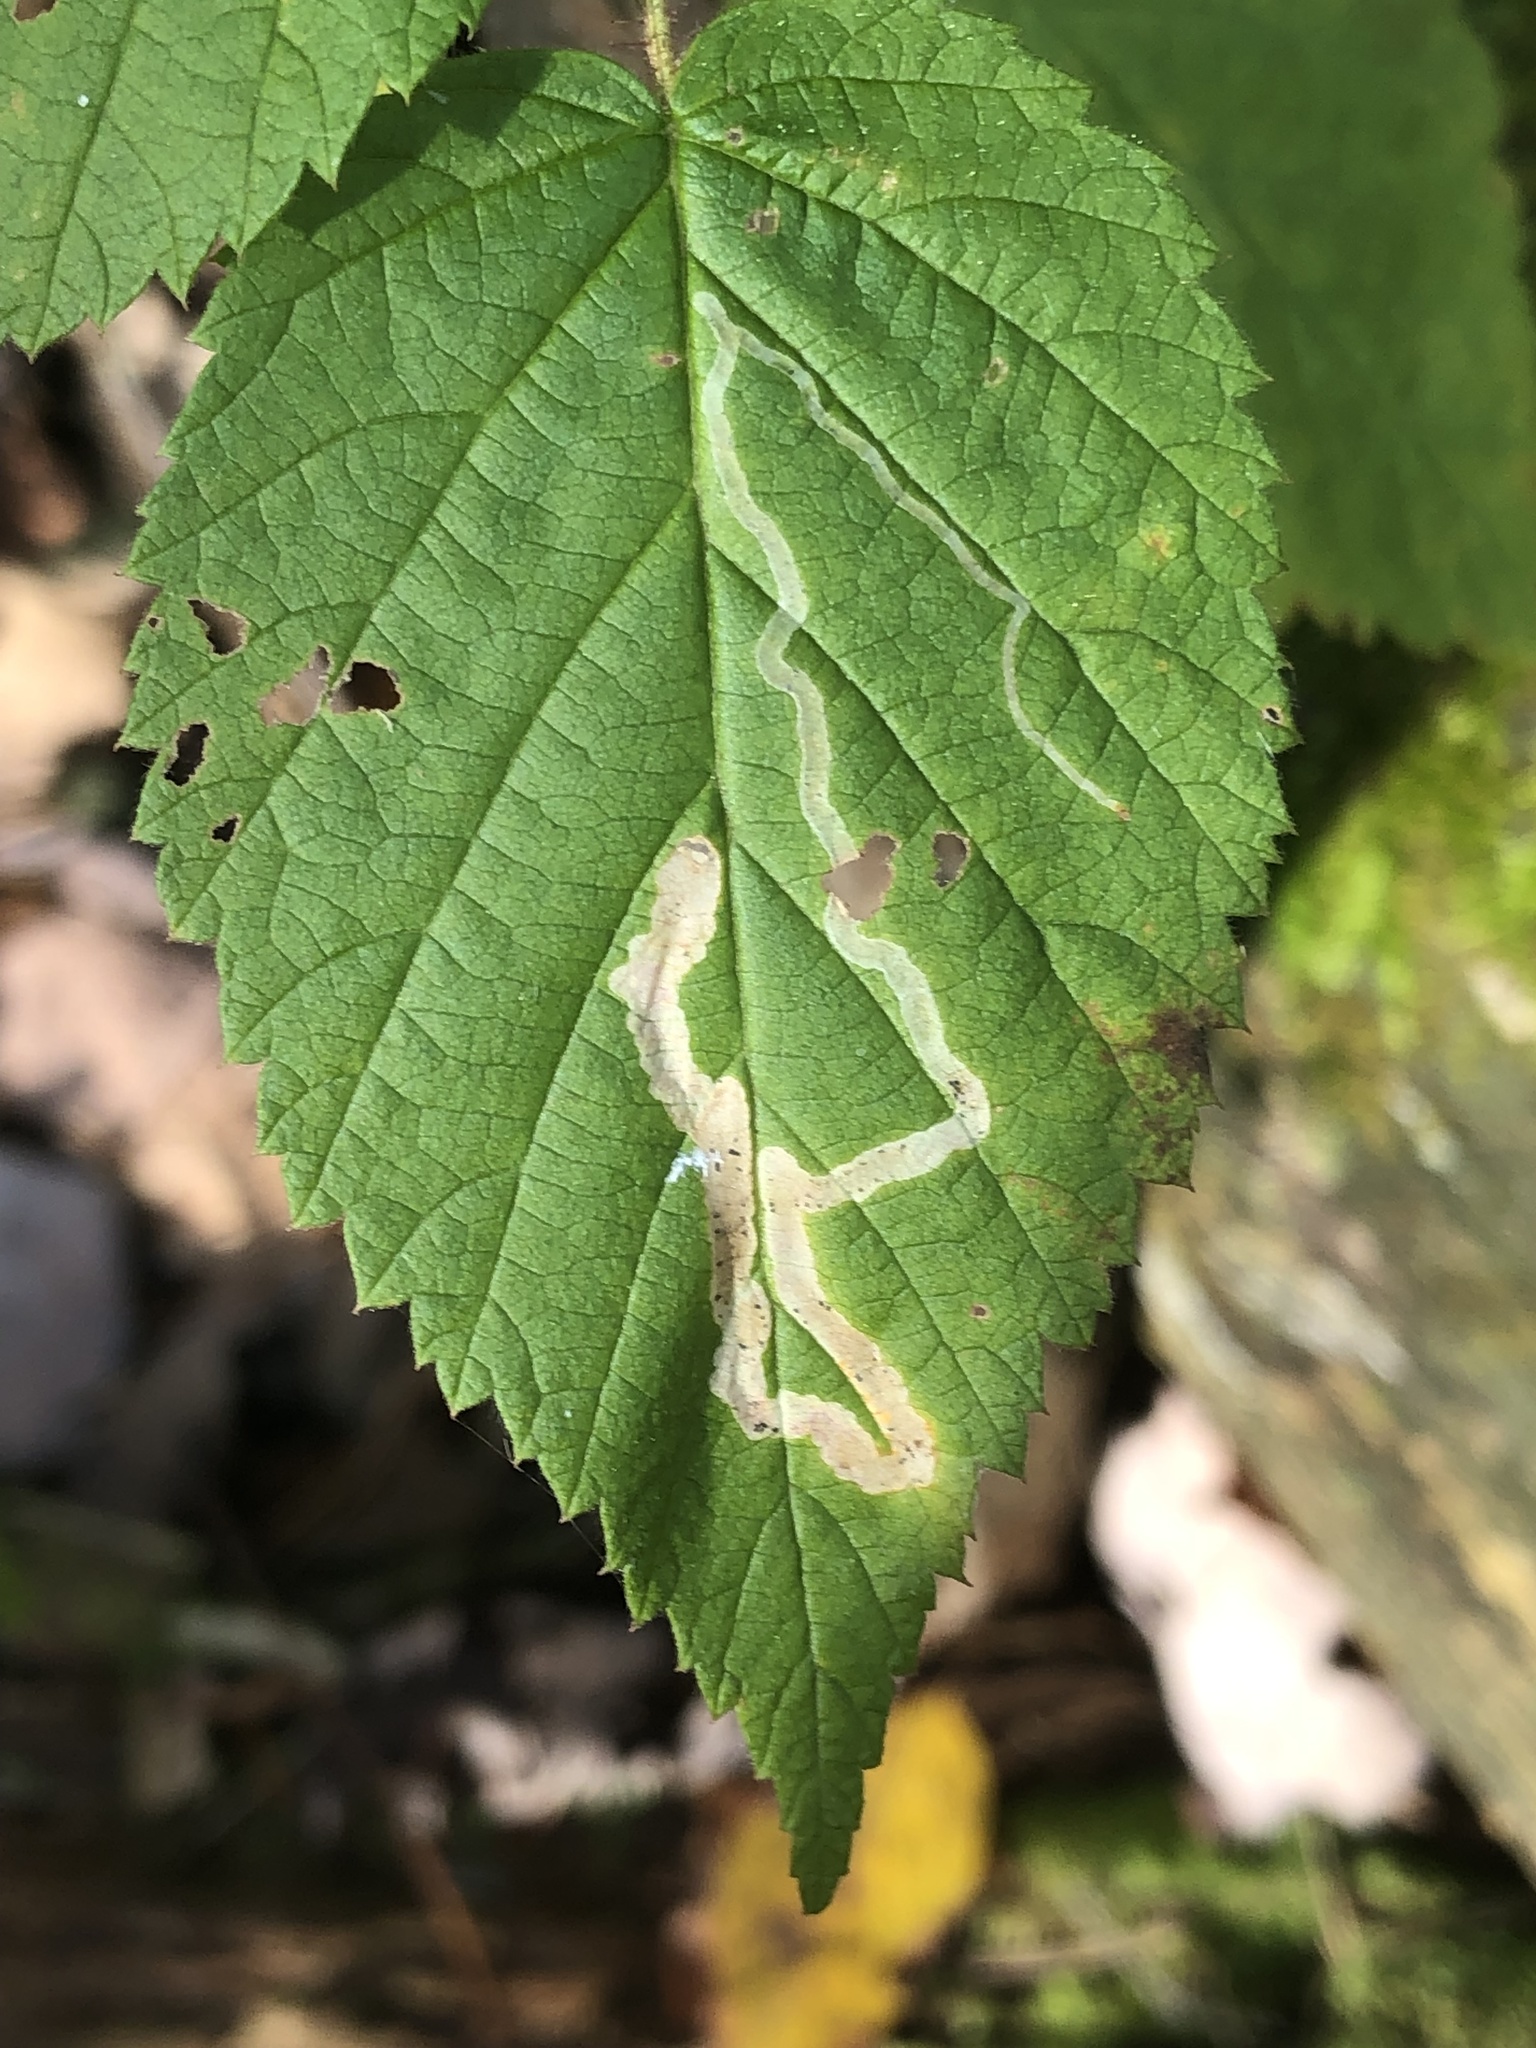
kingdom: Animalia
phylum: Arthropoda
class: Insecta
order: Diptera
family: Agromyzidae
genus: Agromyza
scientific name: Agromyza vockerothi
